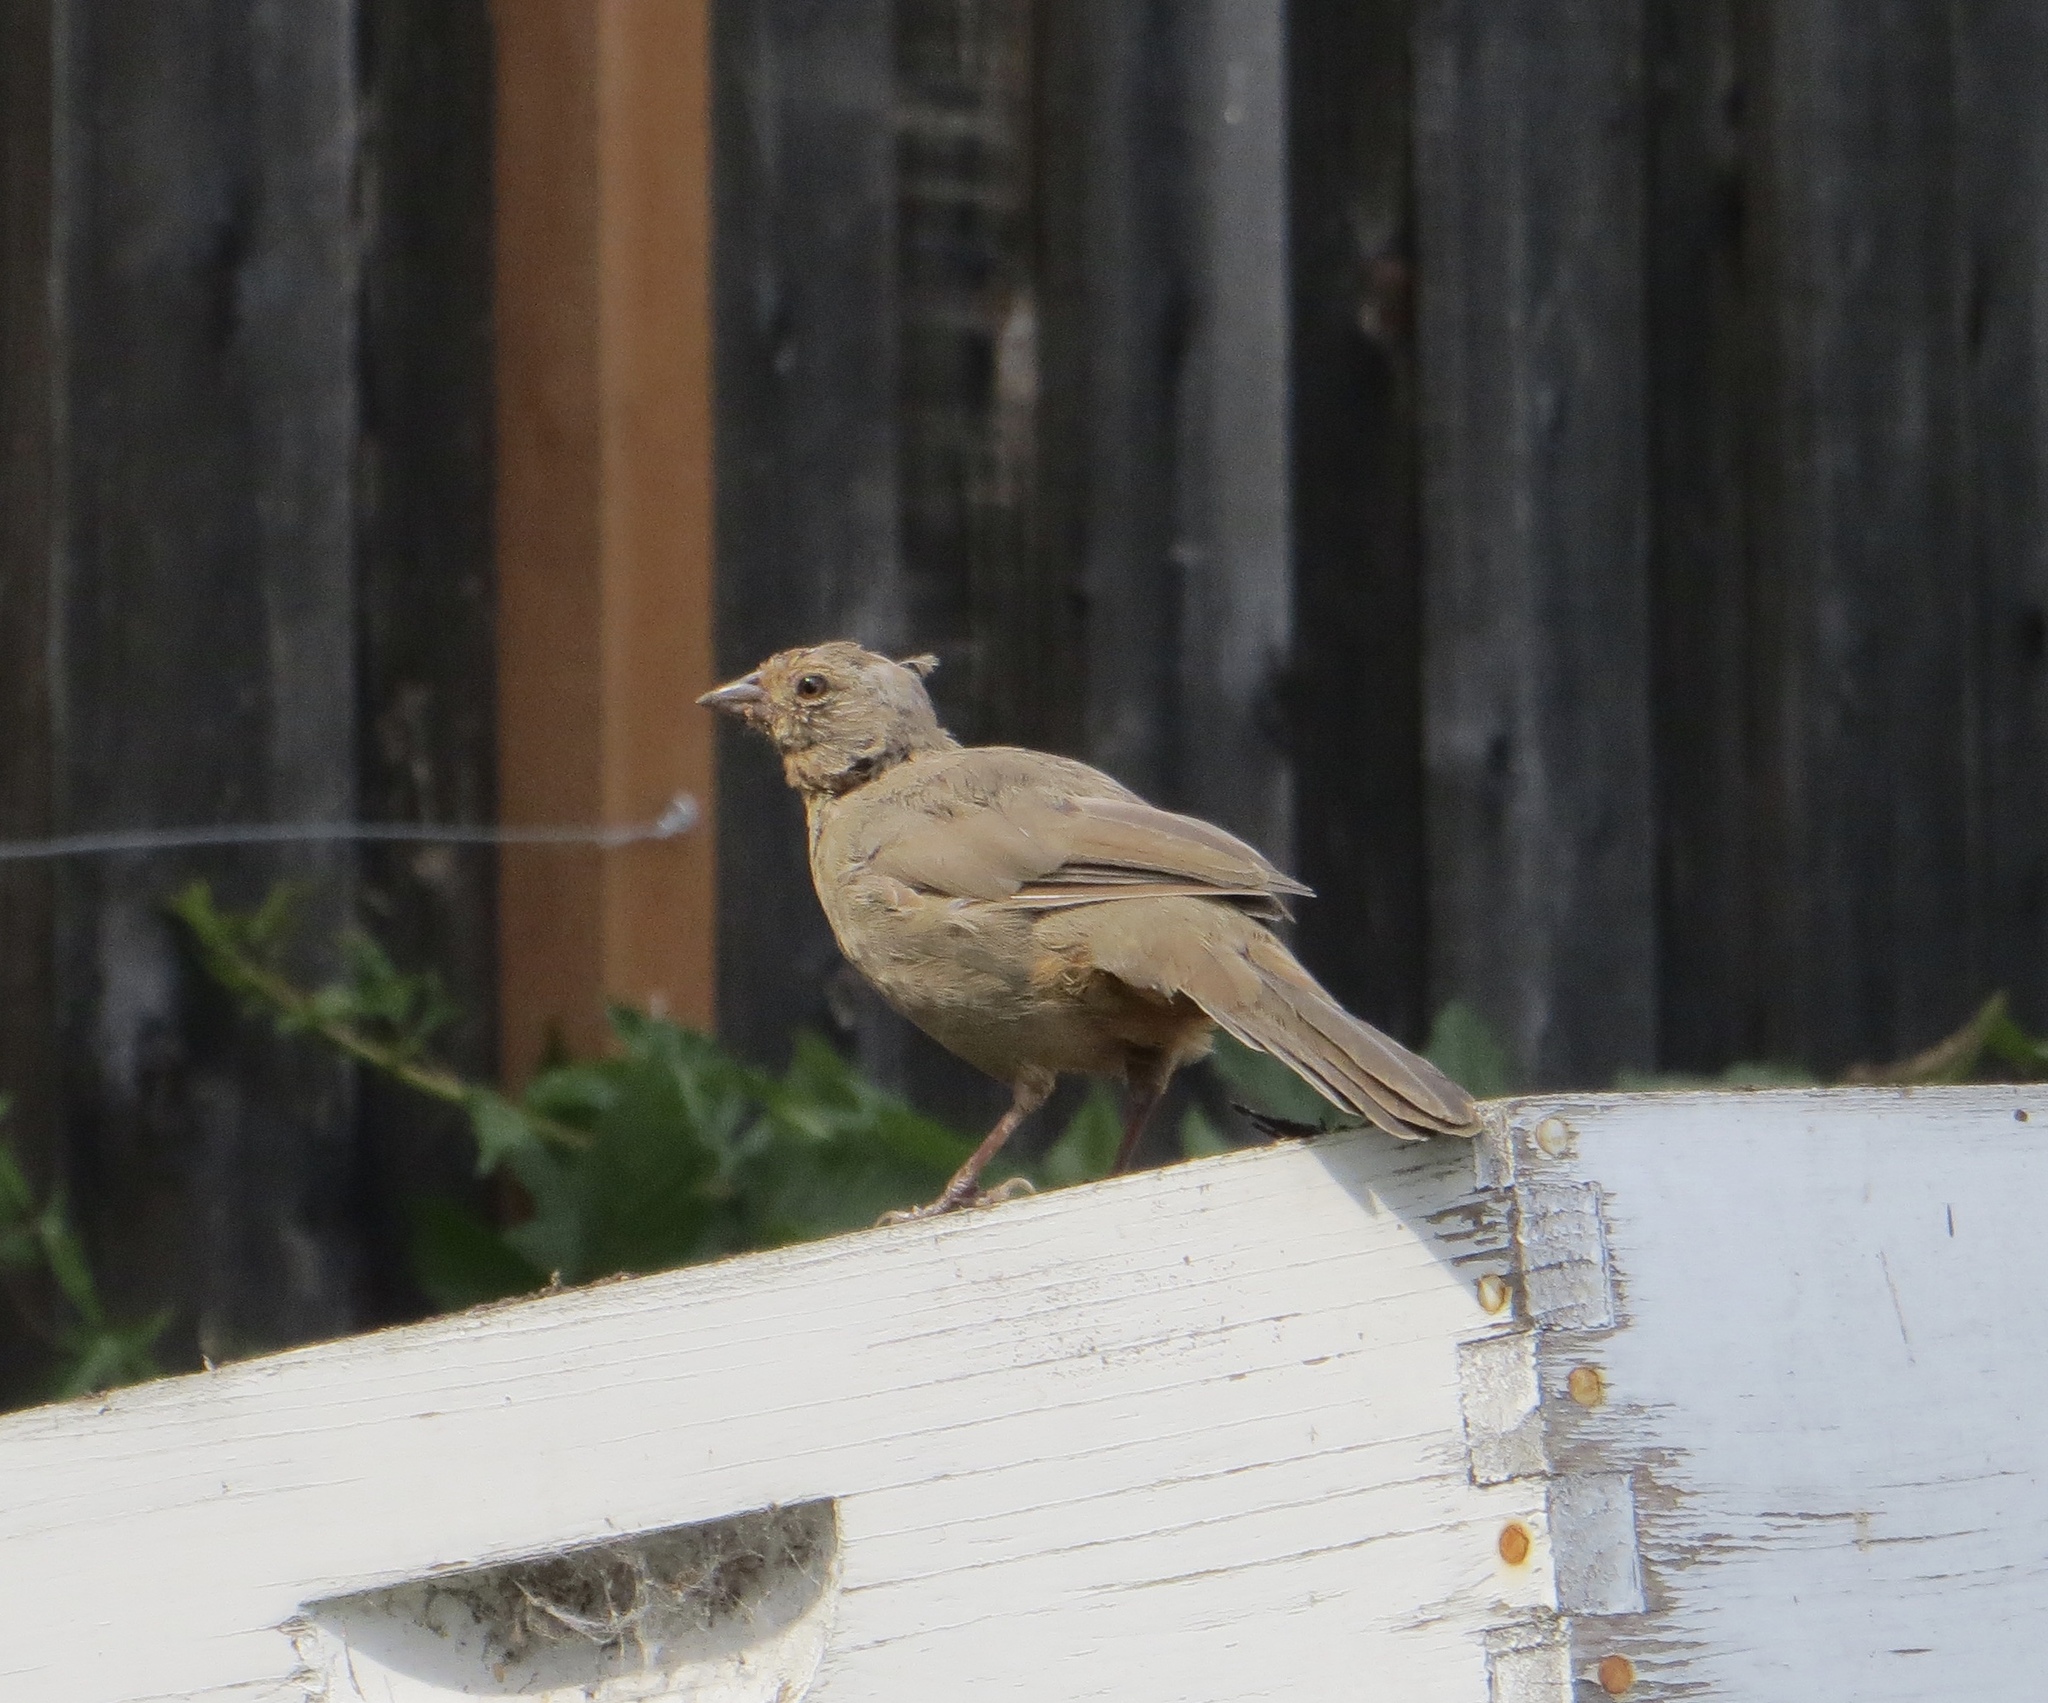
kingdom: Animalia
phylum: Chordata
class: Aves
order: Passeriformes
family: Passerellidae
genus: Melozone
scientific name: Melozone crissalis
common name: California towhee
